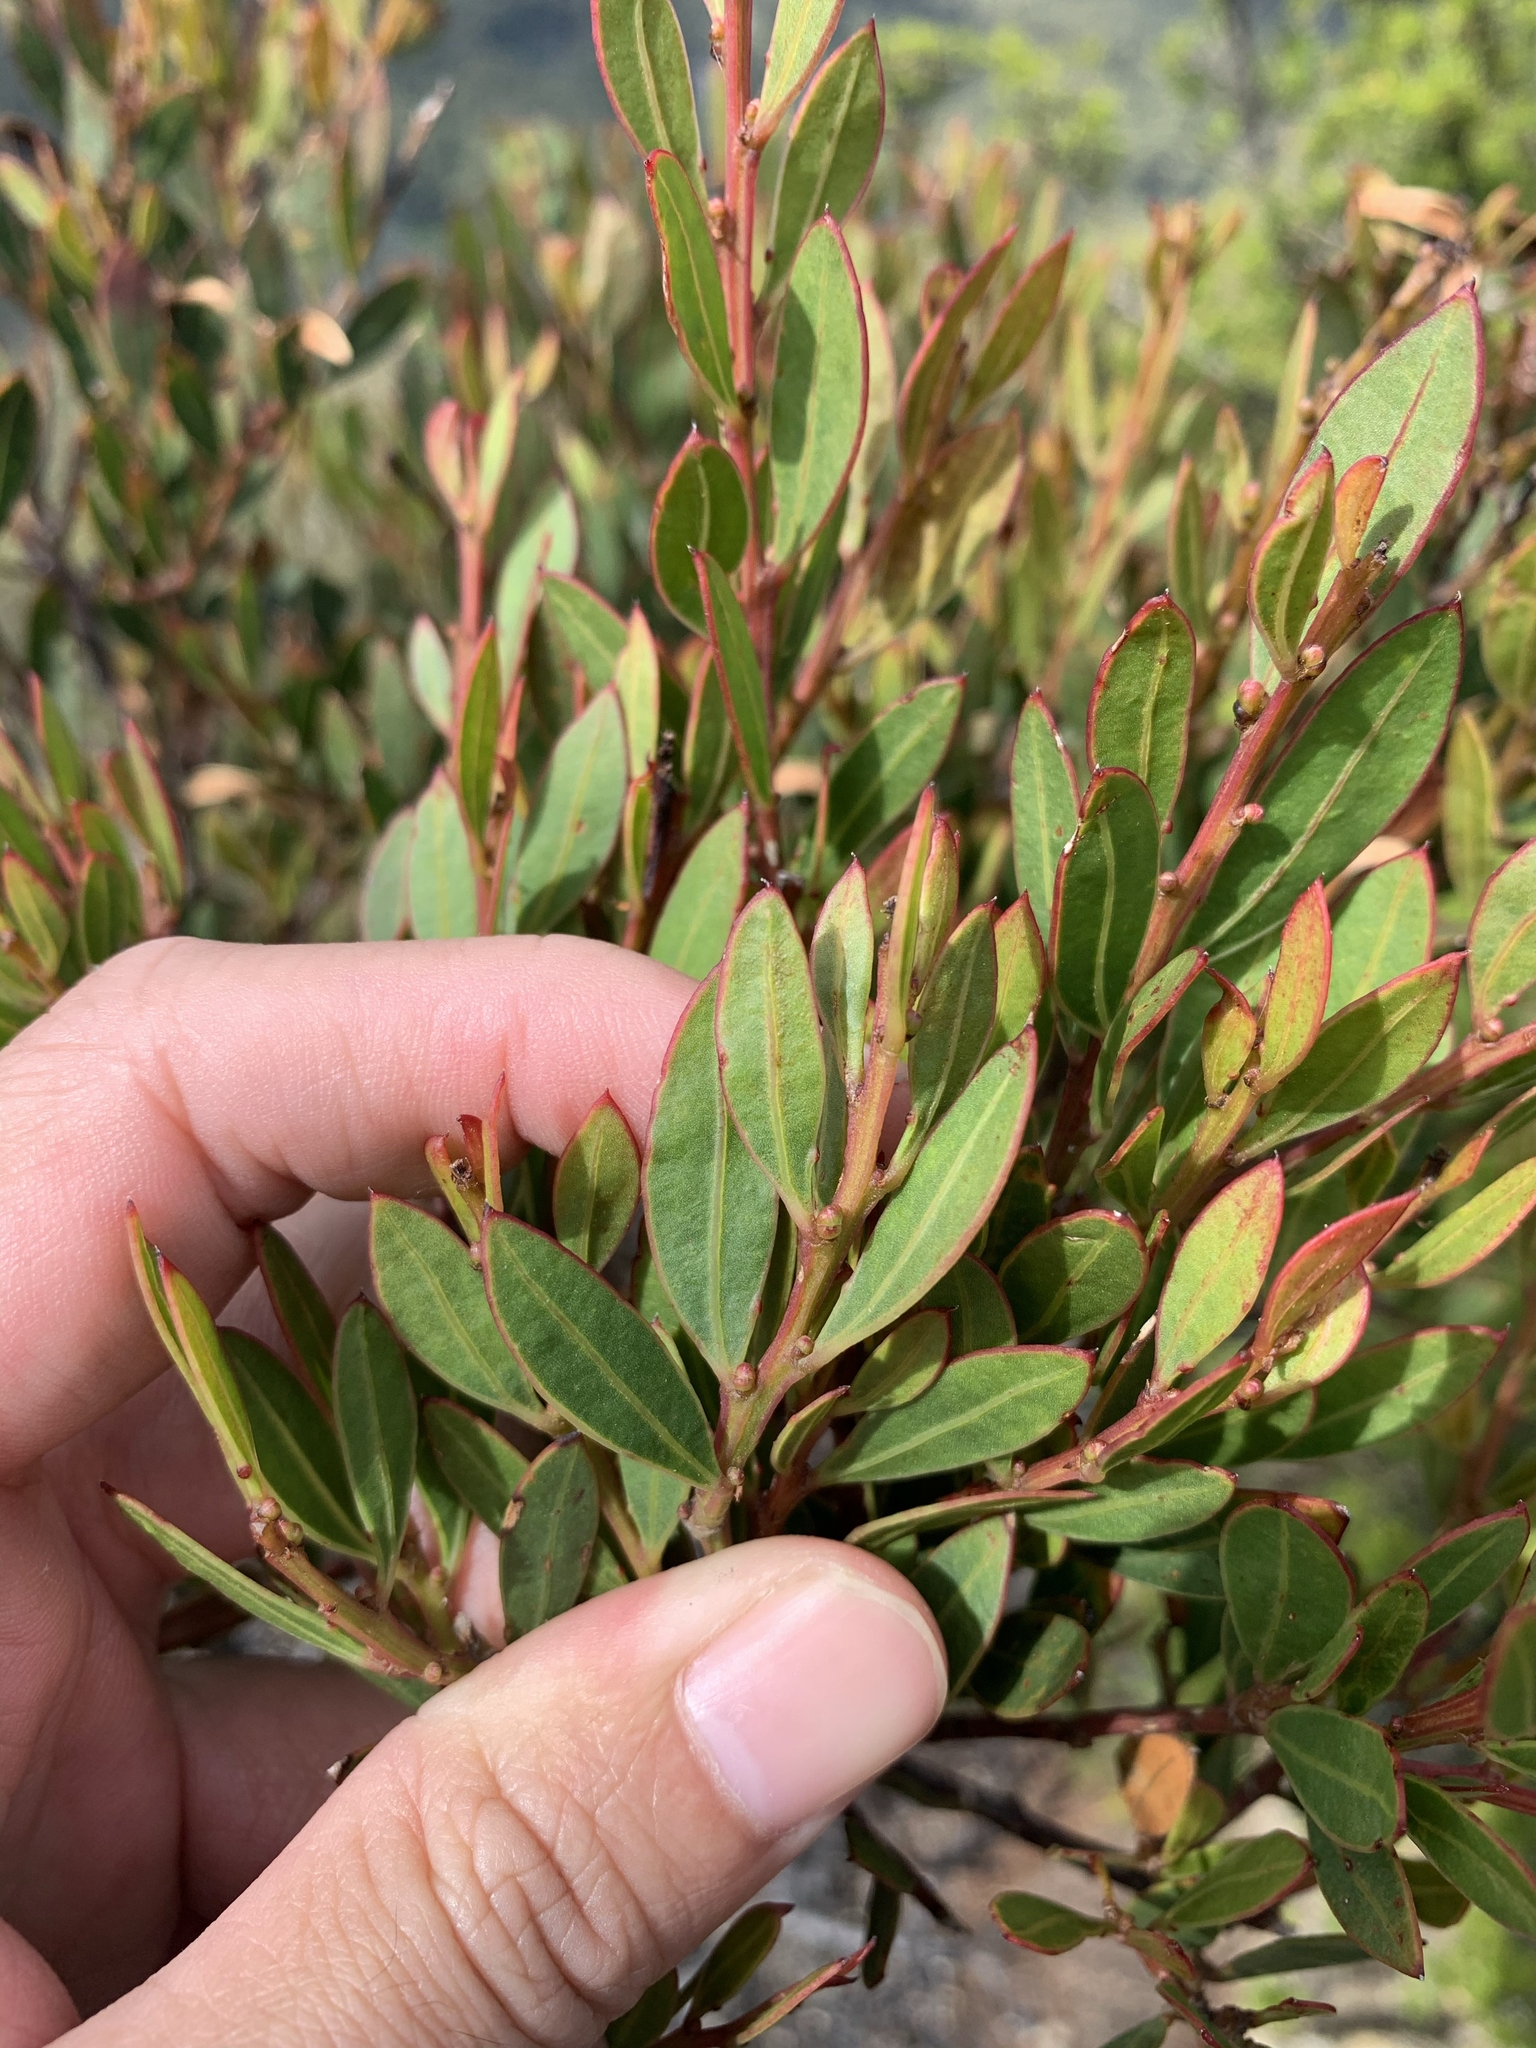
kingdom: Plantae
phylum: Tracheophyta
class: Magnoliopsida
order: Fabales
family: Fabaceae
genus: Acacia
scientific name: Acacia myrtifolia
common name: Myrtle wattle
